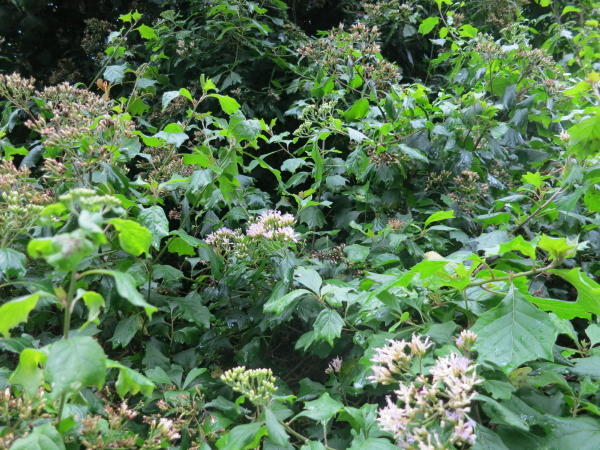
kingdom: Plantae
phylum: Tracheophyta
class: Magnoliopsida
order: Asterales
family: Asteraceae
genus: Gymnanthemum
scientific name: Gymnanthemum capense
